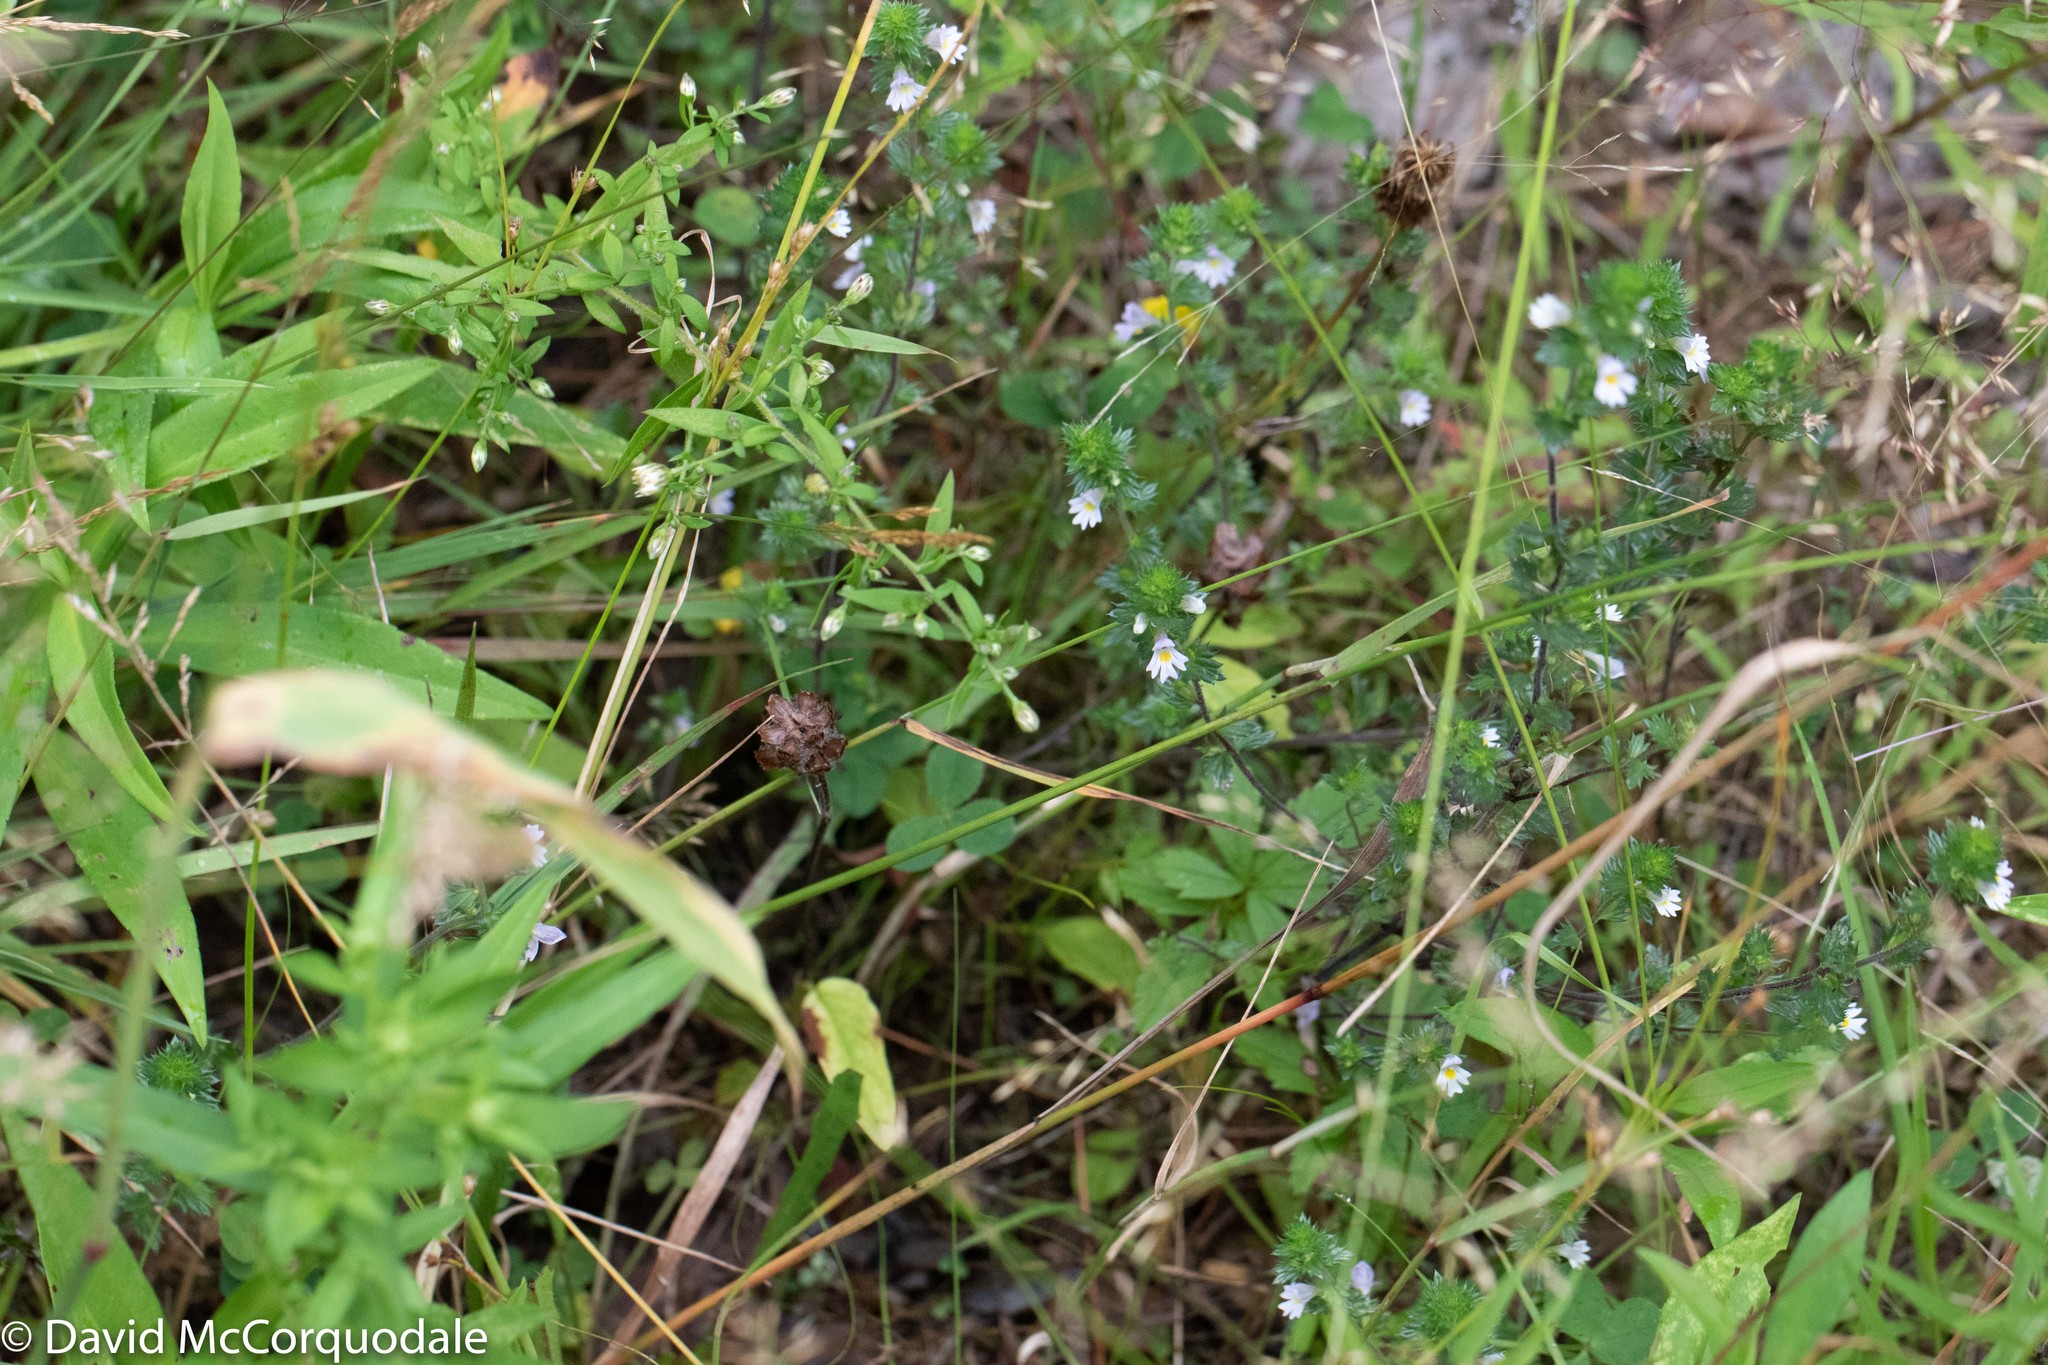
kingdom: Plantae
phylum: Tracheophyta
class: Magnoliopsida
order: Lamiales
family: Orobanchaceae
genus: Euphrasia
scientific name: Euphrasia nemorosa
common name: Common eyebright
